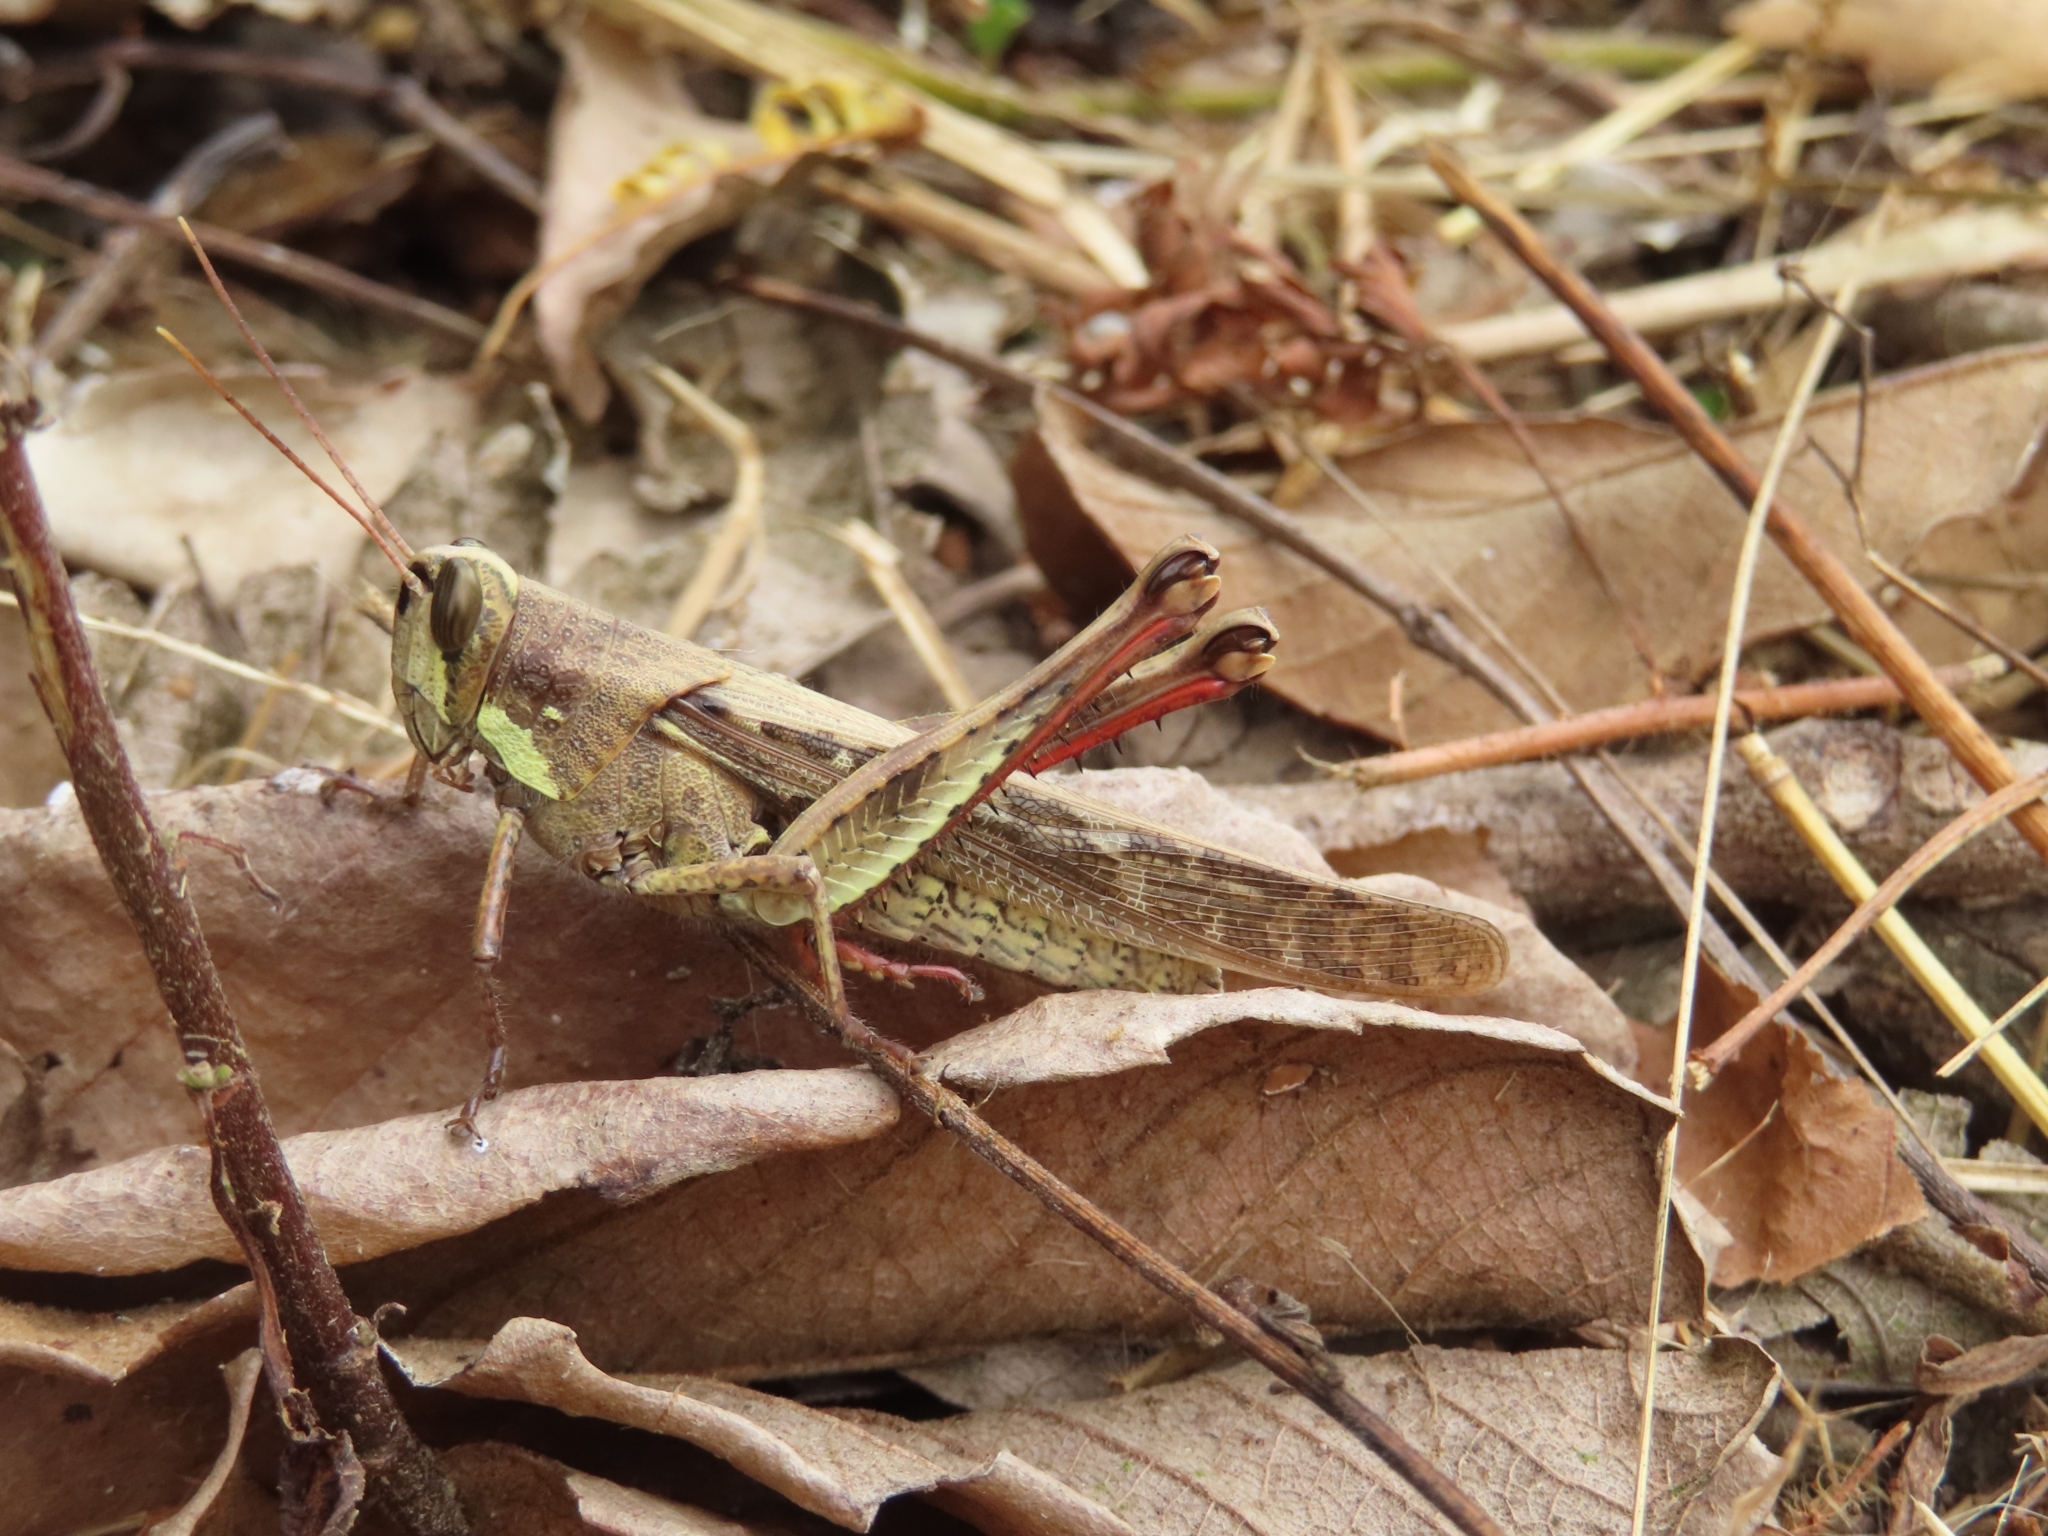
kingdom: Animalia
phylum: Arthropoda
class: Insecta
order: Orthoptera
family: Acrididae
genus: Schistocerca
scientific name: Schistocerca nitens
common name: Vagrant grasshopper
